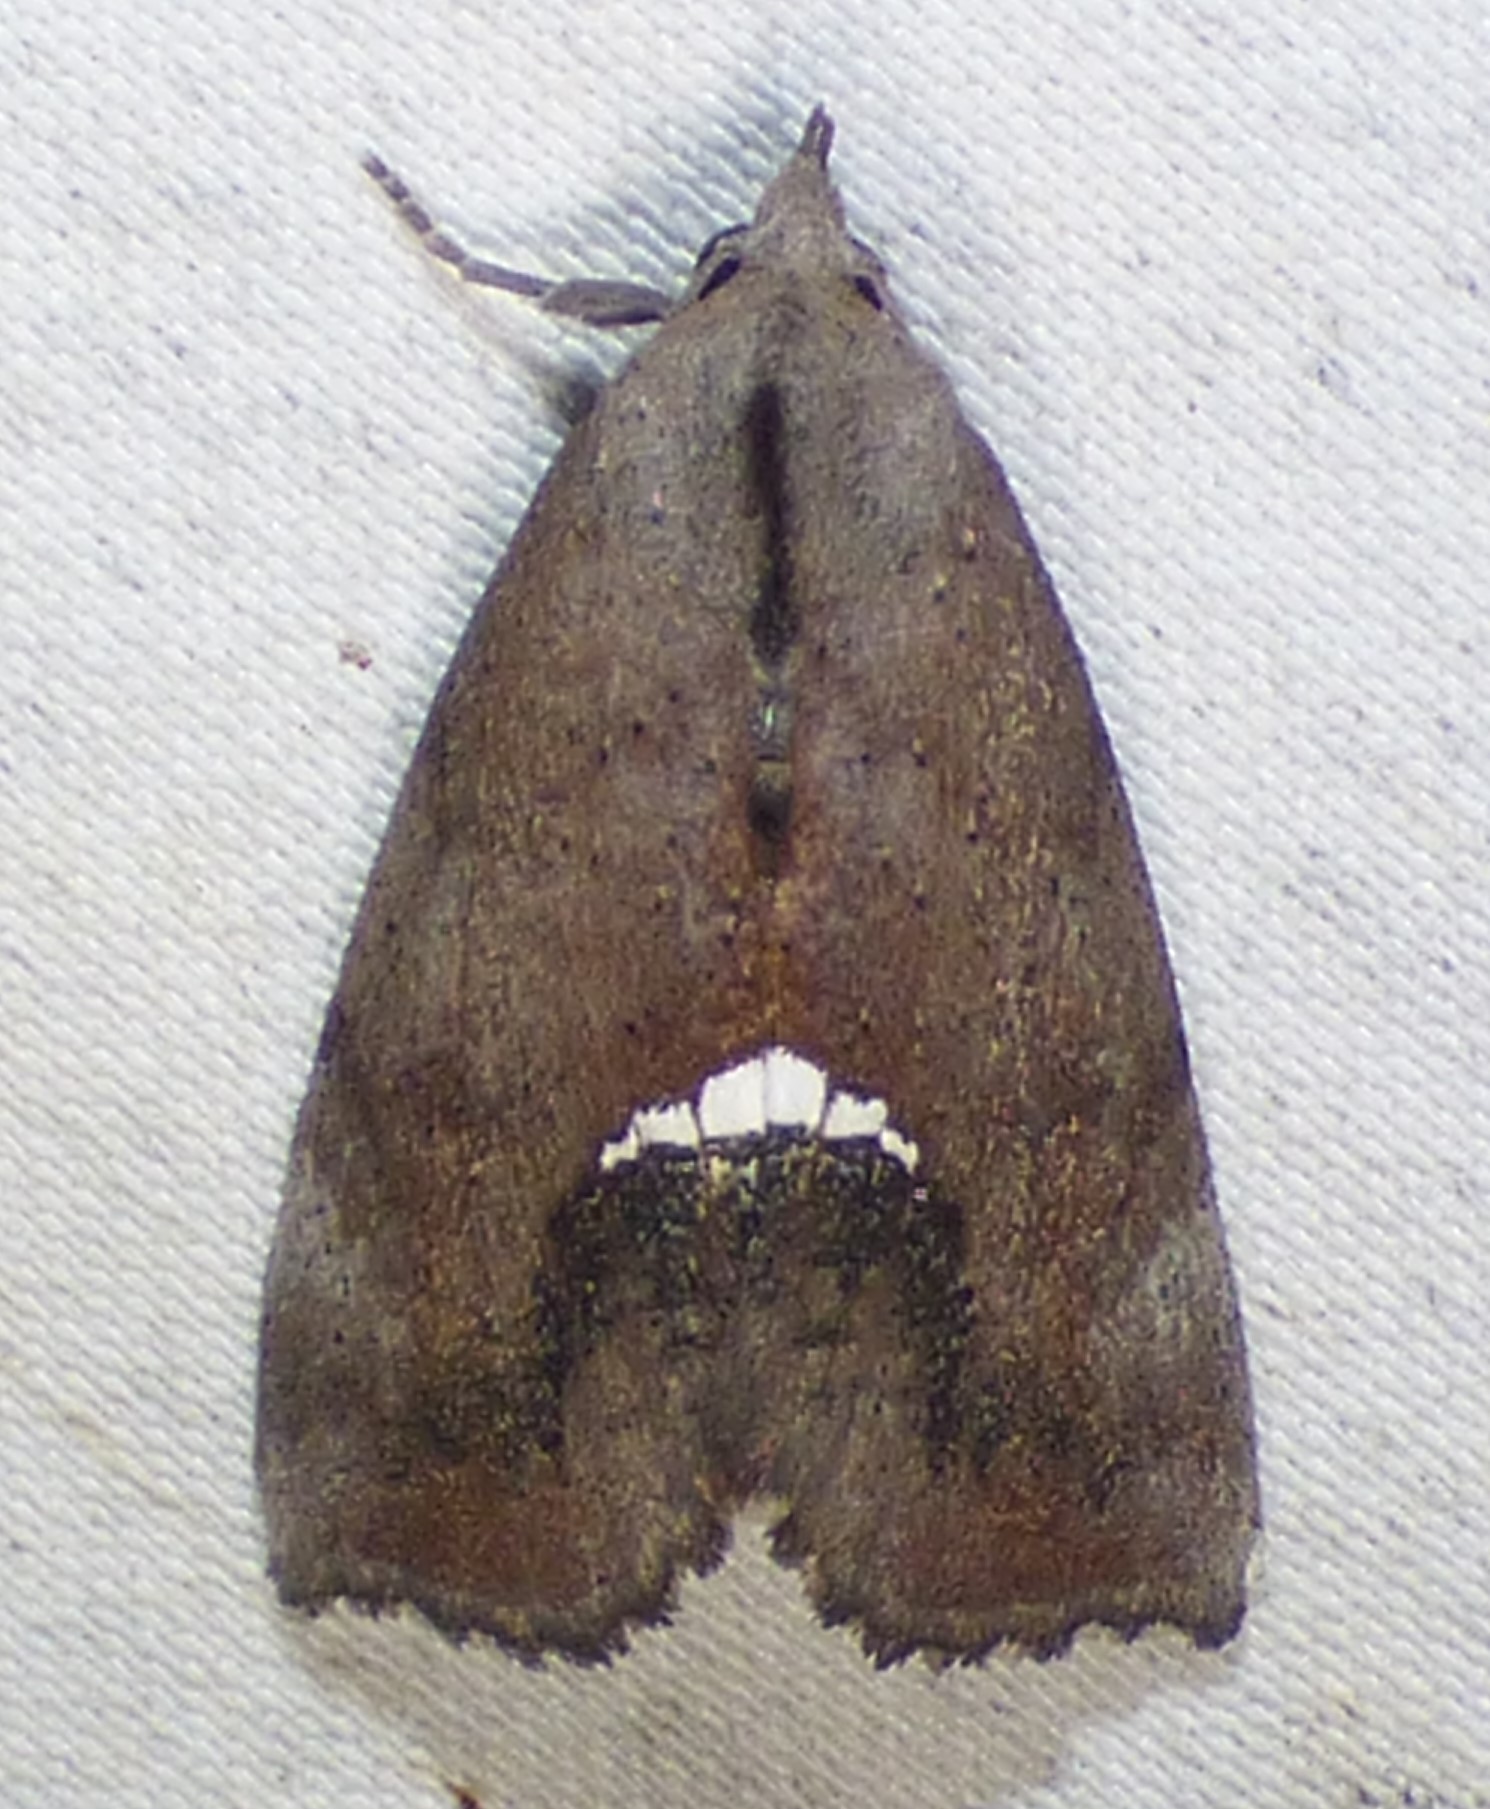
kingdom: Animalia
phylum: Arthropoda
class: Insecta
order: Lepidoptera
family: Erebidae
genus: Hypsoropha
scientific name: Hypsoropha hormos
